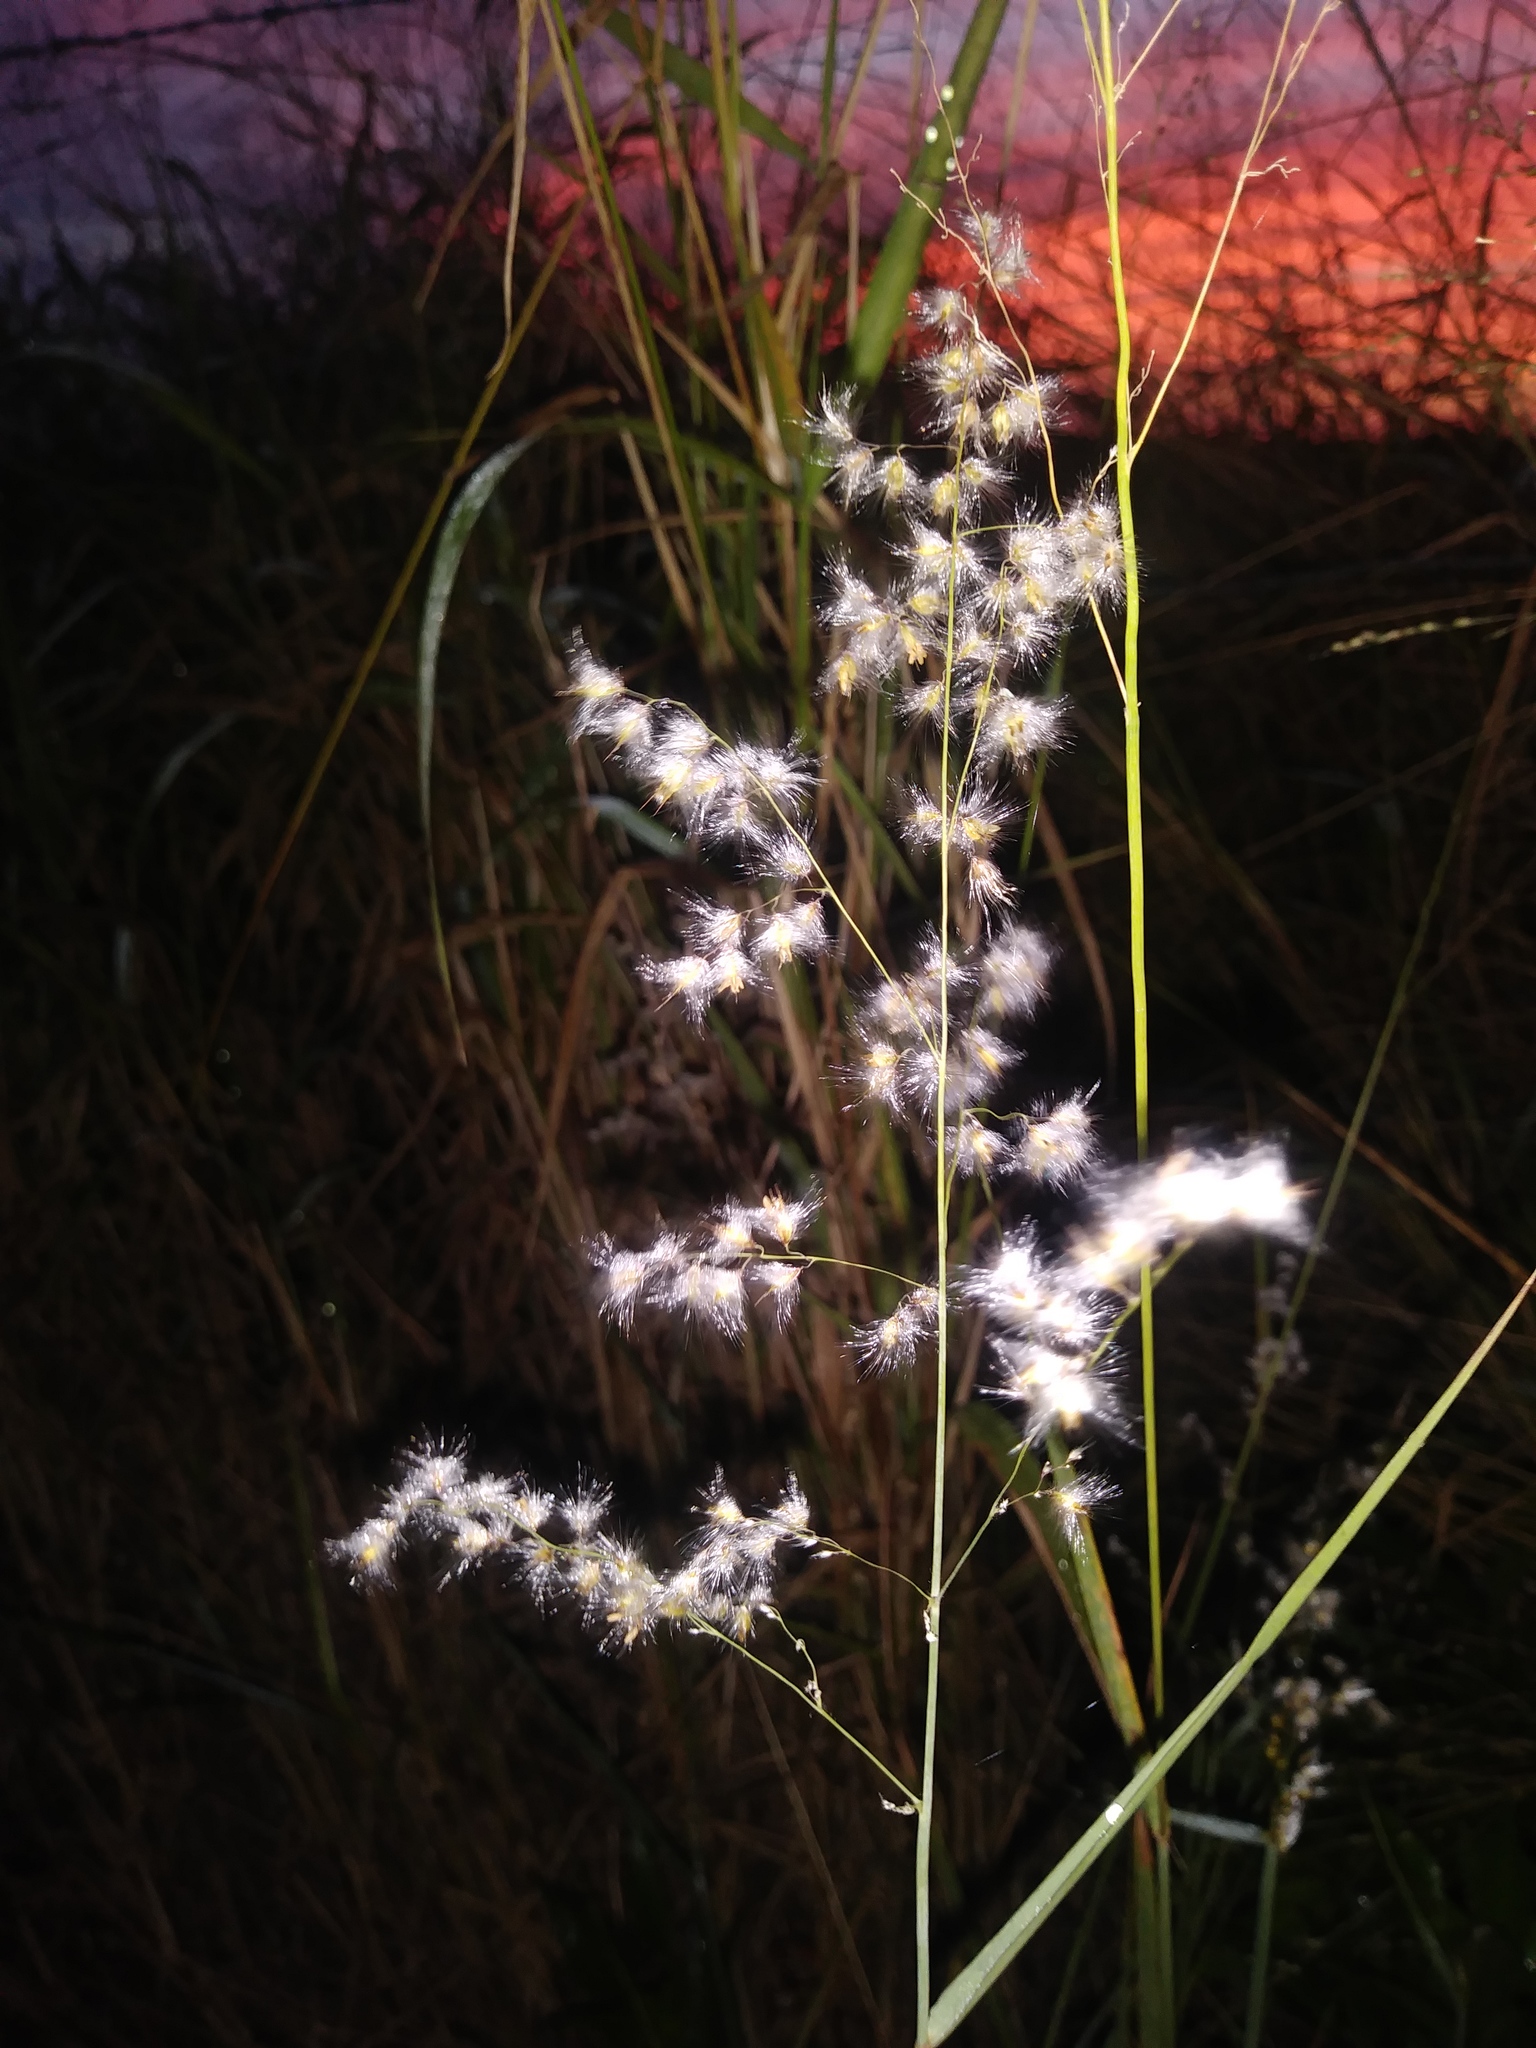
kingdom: Plantae
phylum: Tracheophyta
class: Liliopsida
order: Poales
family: Poaceae
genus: Melinis
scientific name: Melinis repens
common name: Rose natal grass
